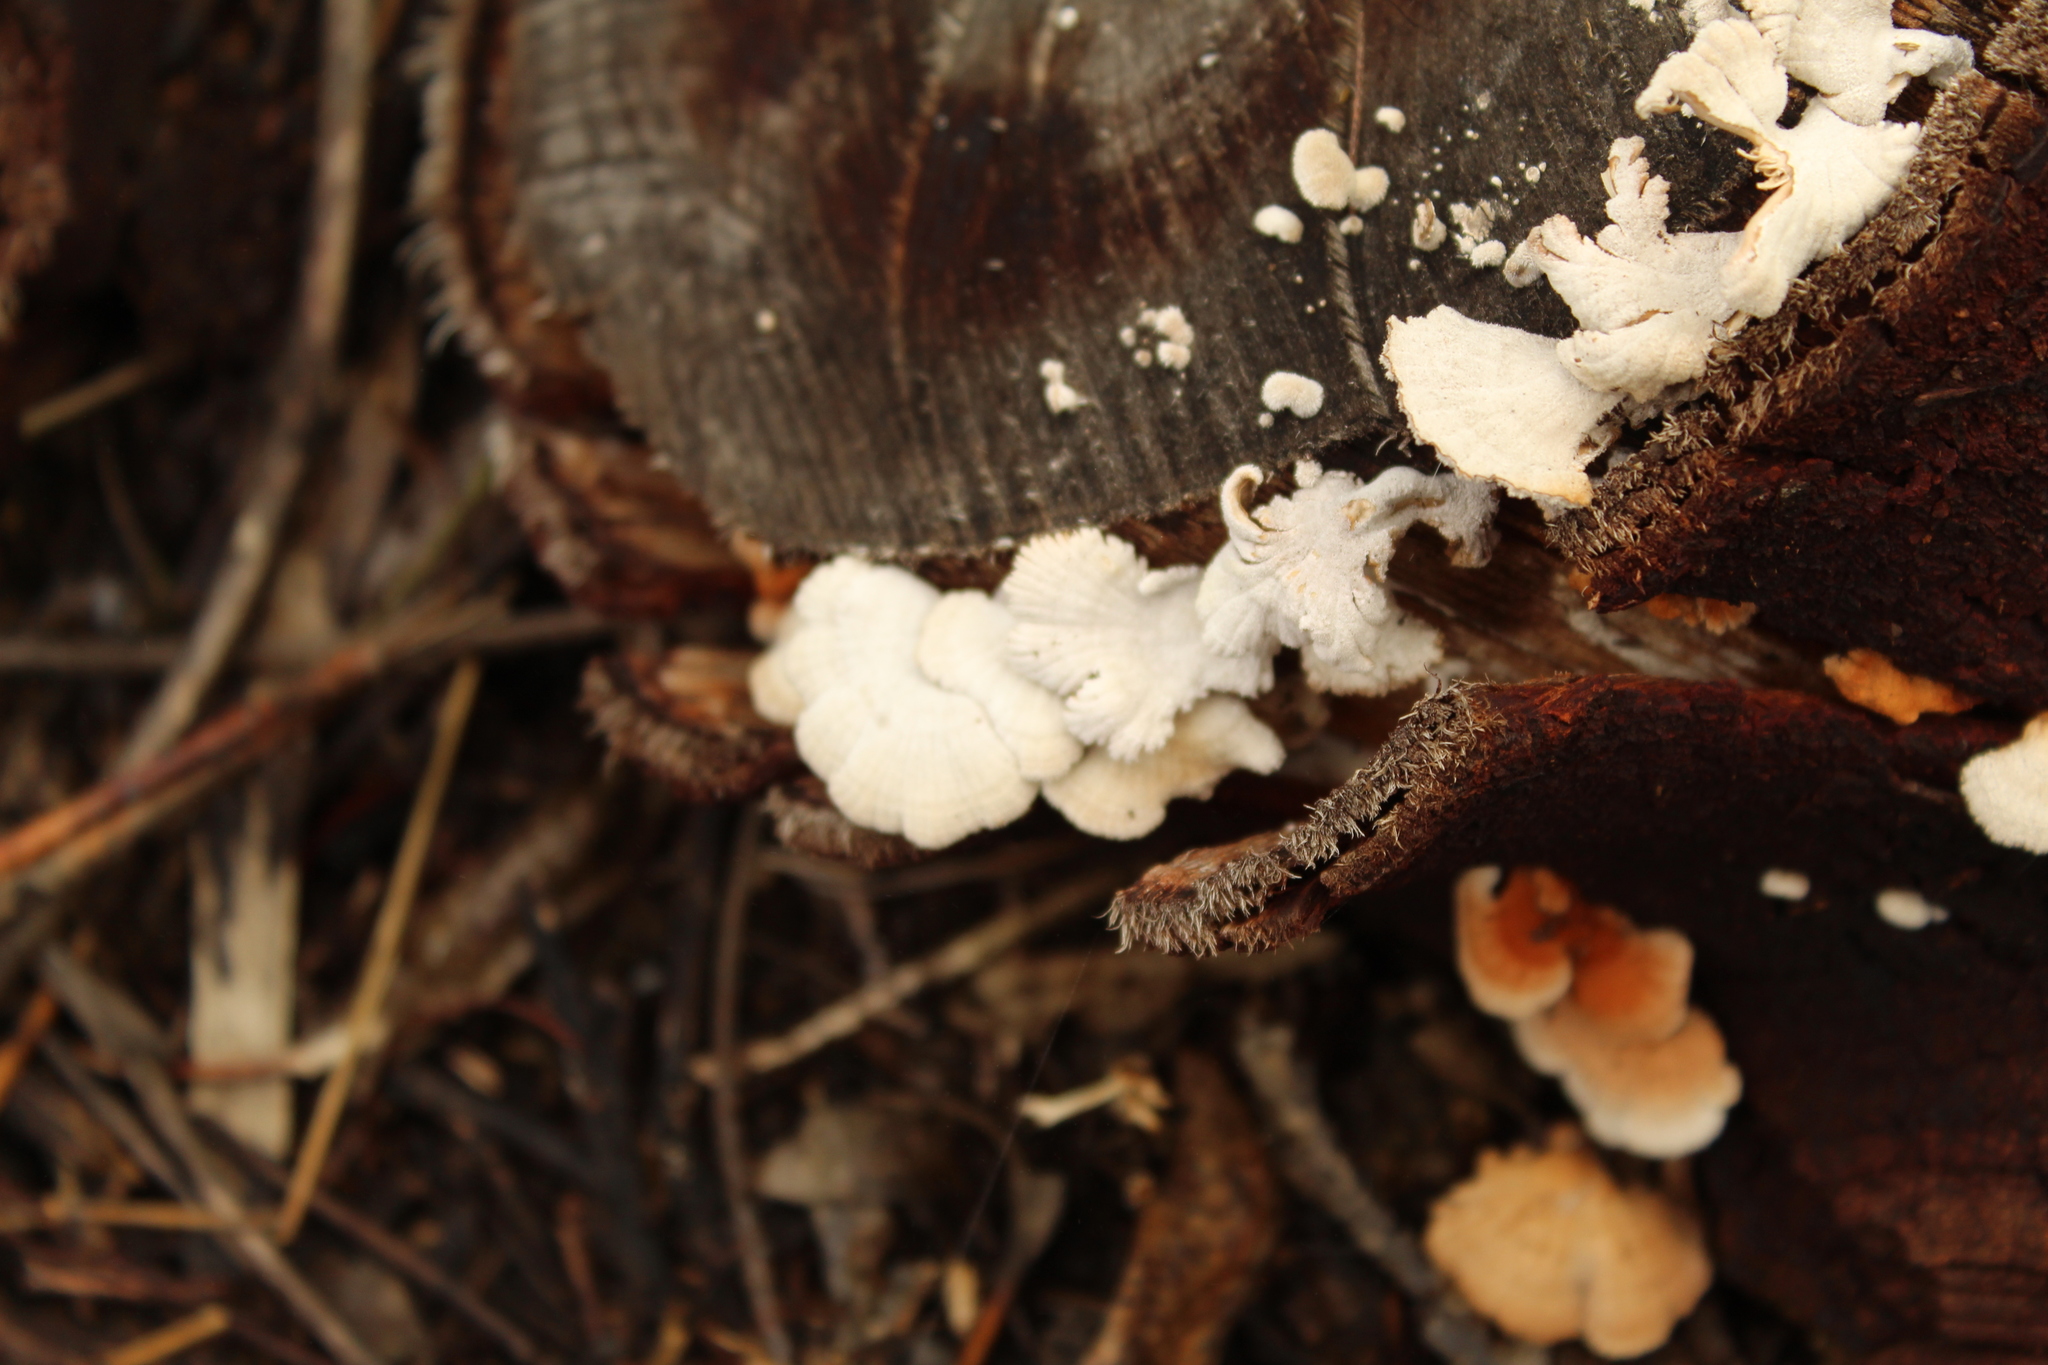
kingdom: Fungi
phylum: Basidiomycota
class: Agaricomycetes
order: Agaricales
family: Schizophyllaceae
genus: Schizophyllum
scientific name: Schizophyllum commune
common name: Common porecrust
